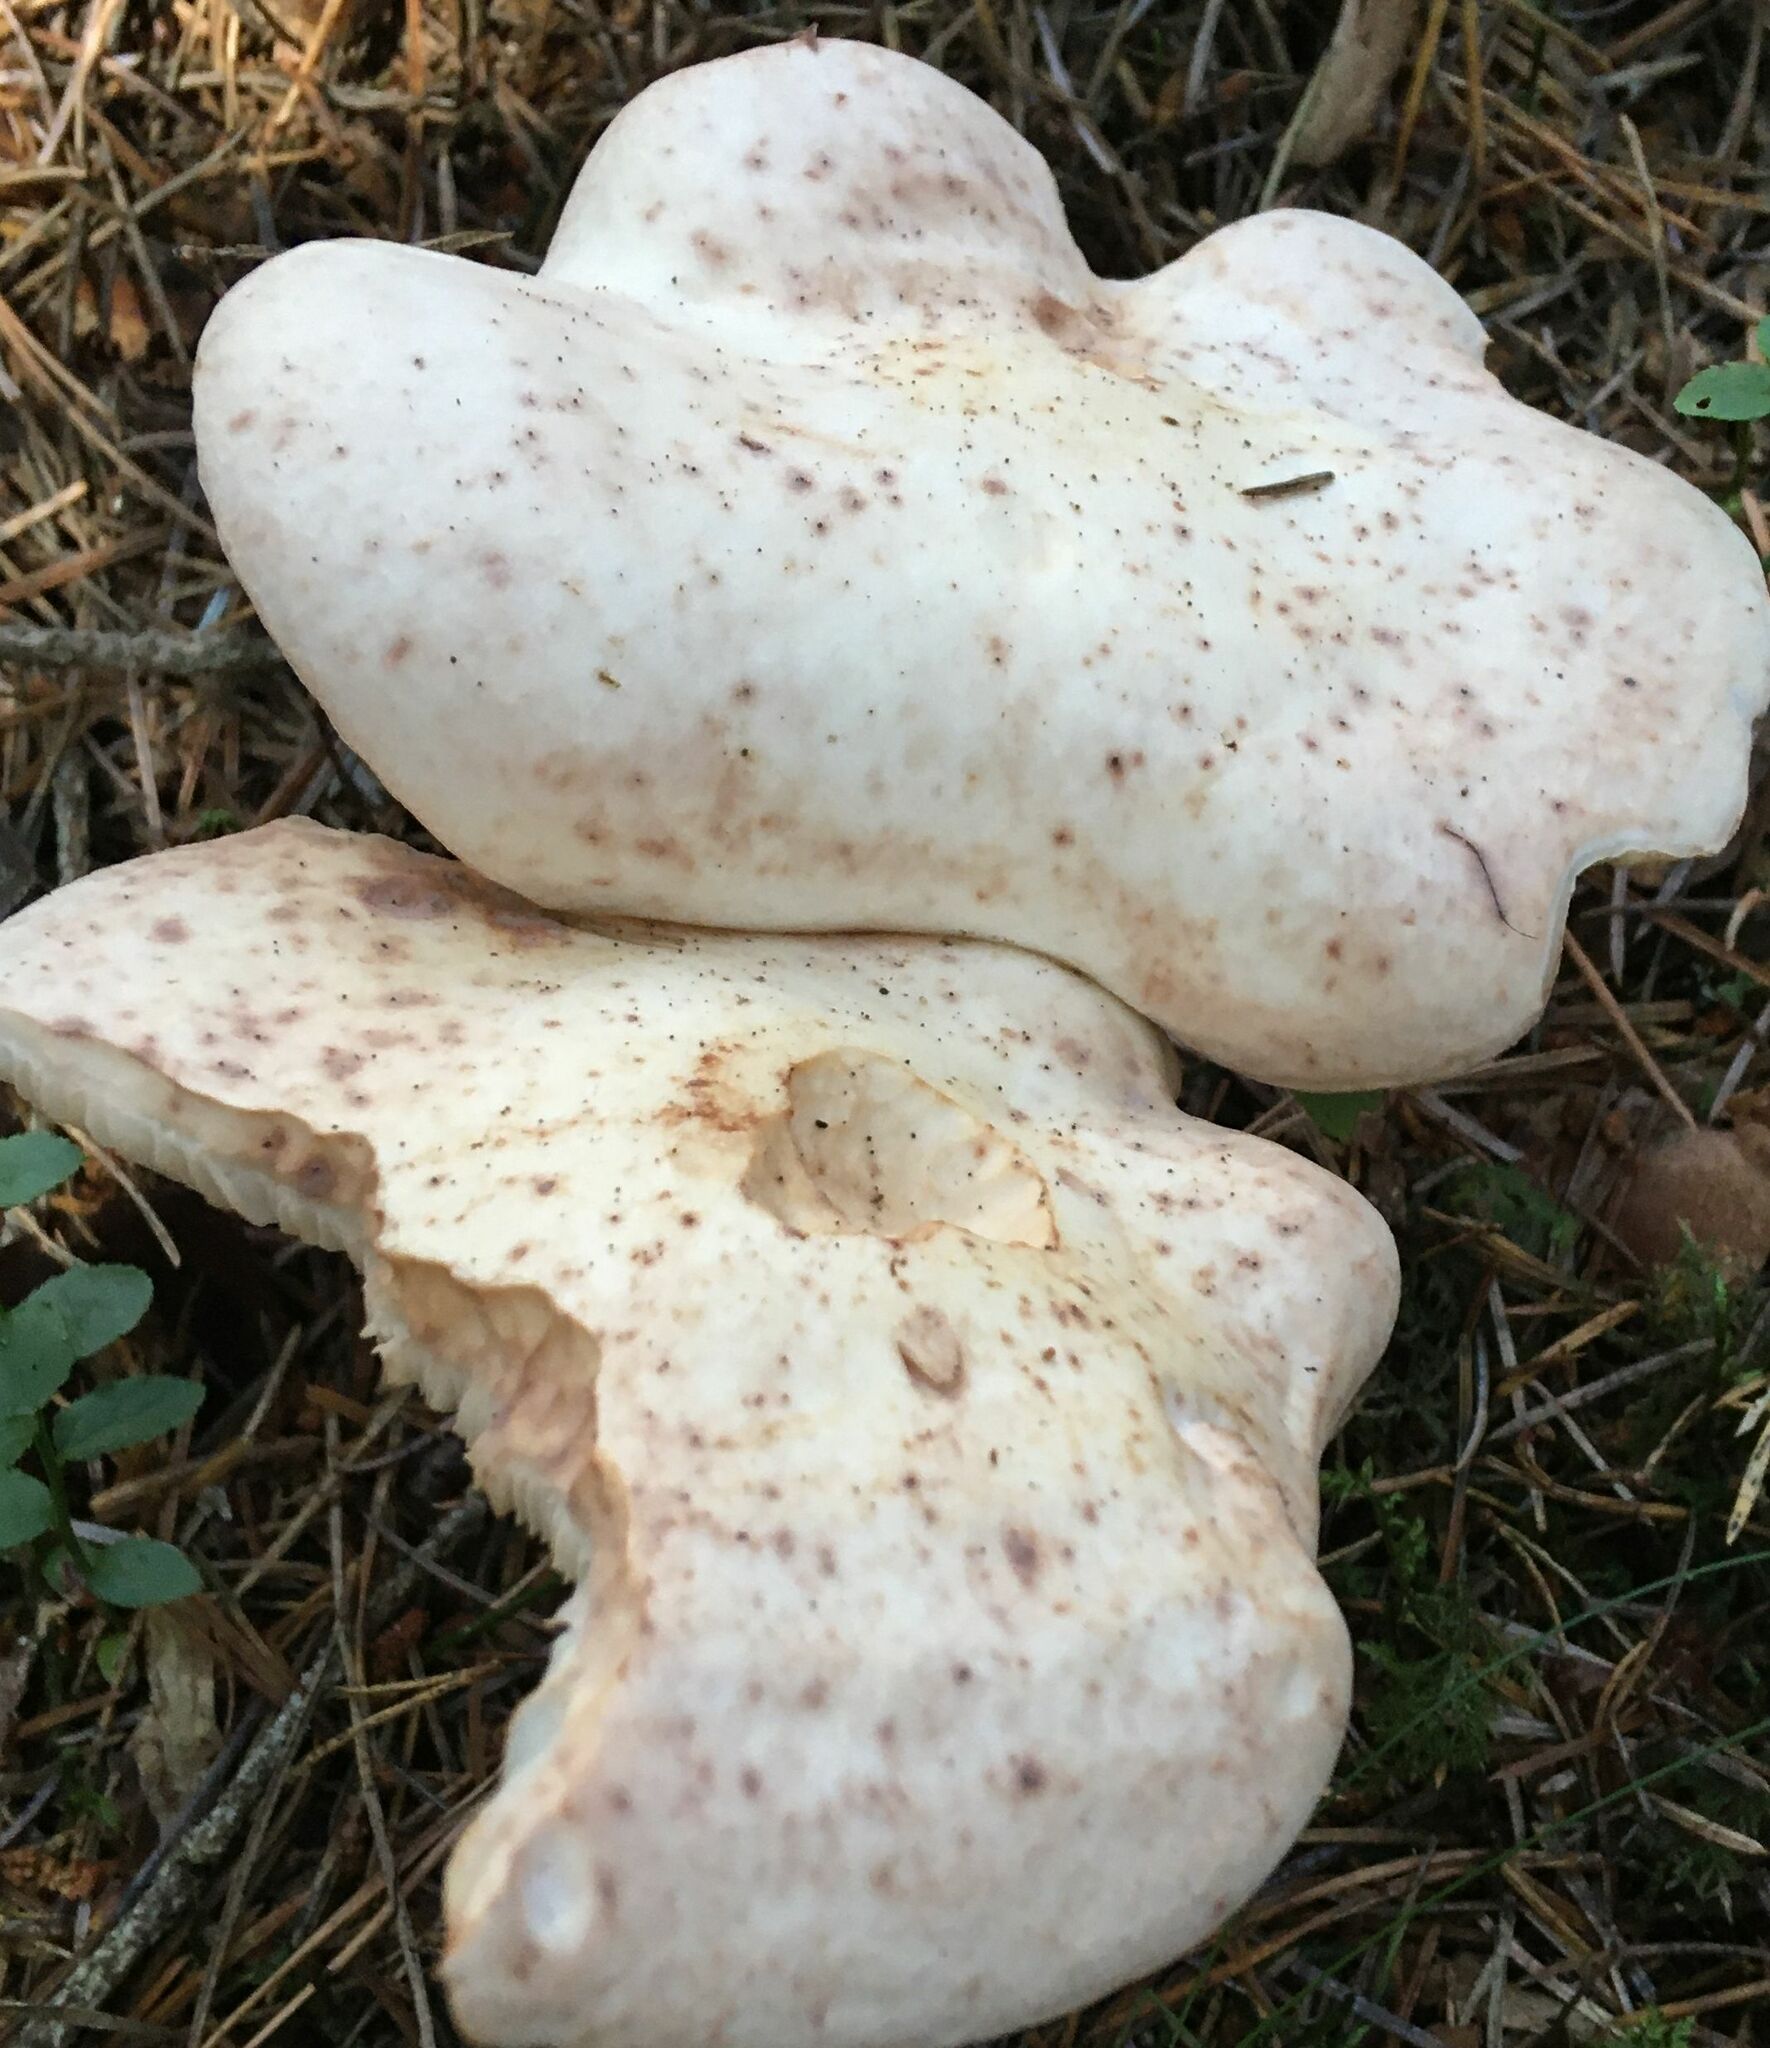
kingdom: Fungi
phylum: Basidiomycota
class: Agaricomycetes
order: Agaricales
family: Omphalotaceae
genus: Rhodocollybia
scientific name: Rhodocollybia maculata
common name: Spotted tough-shank
